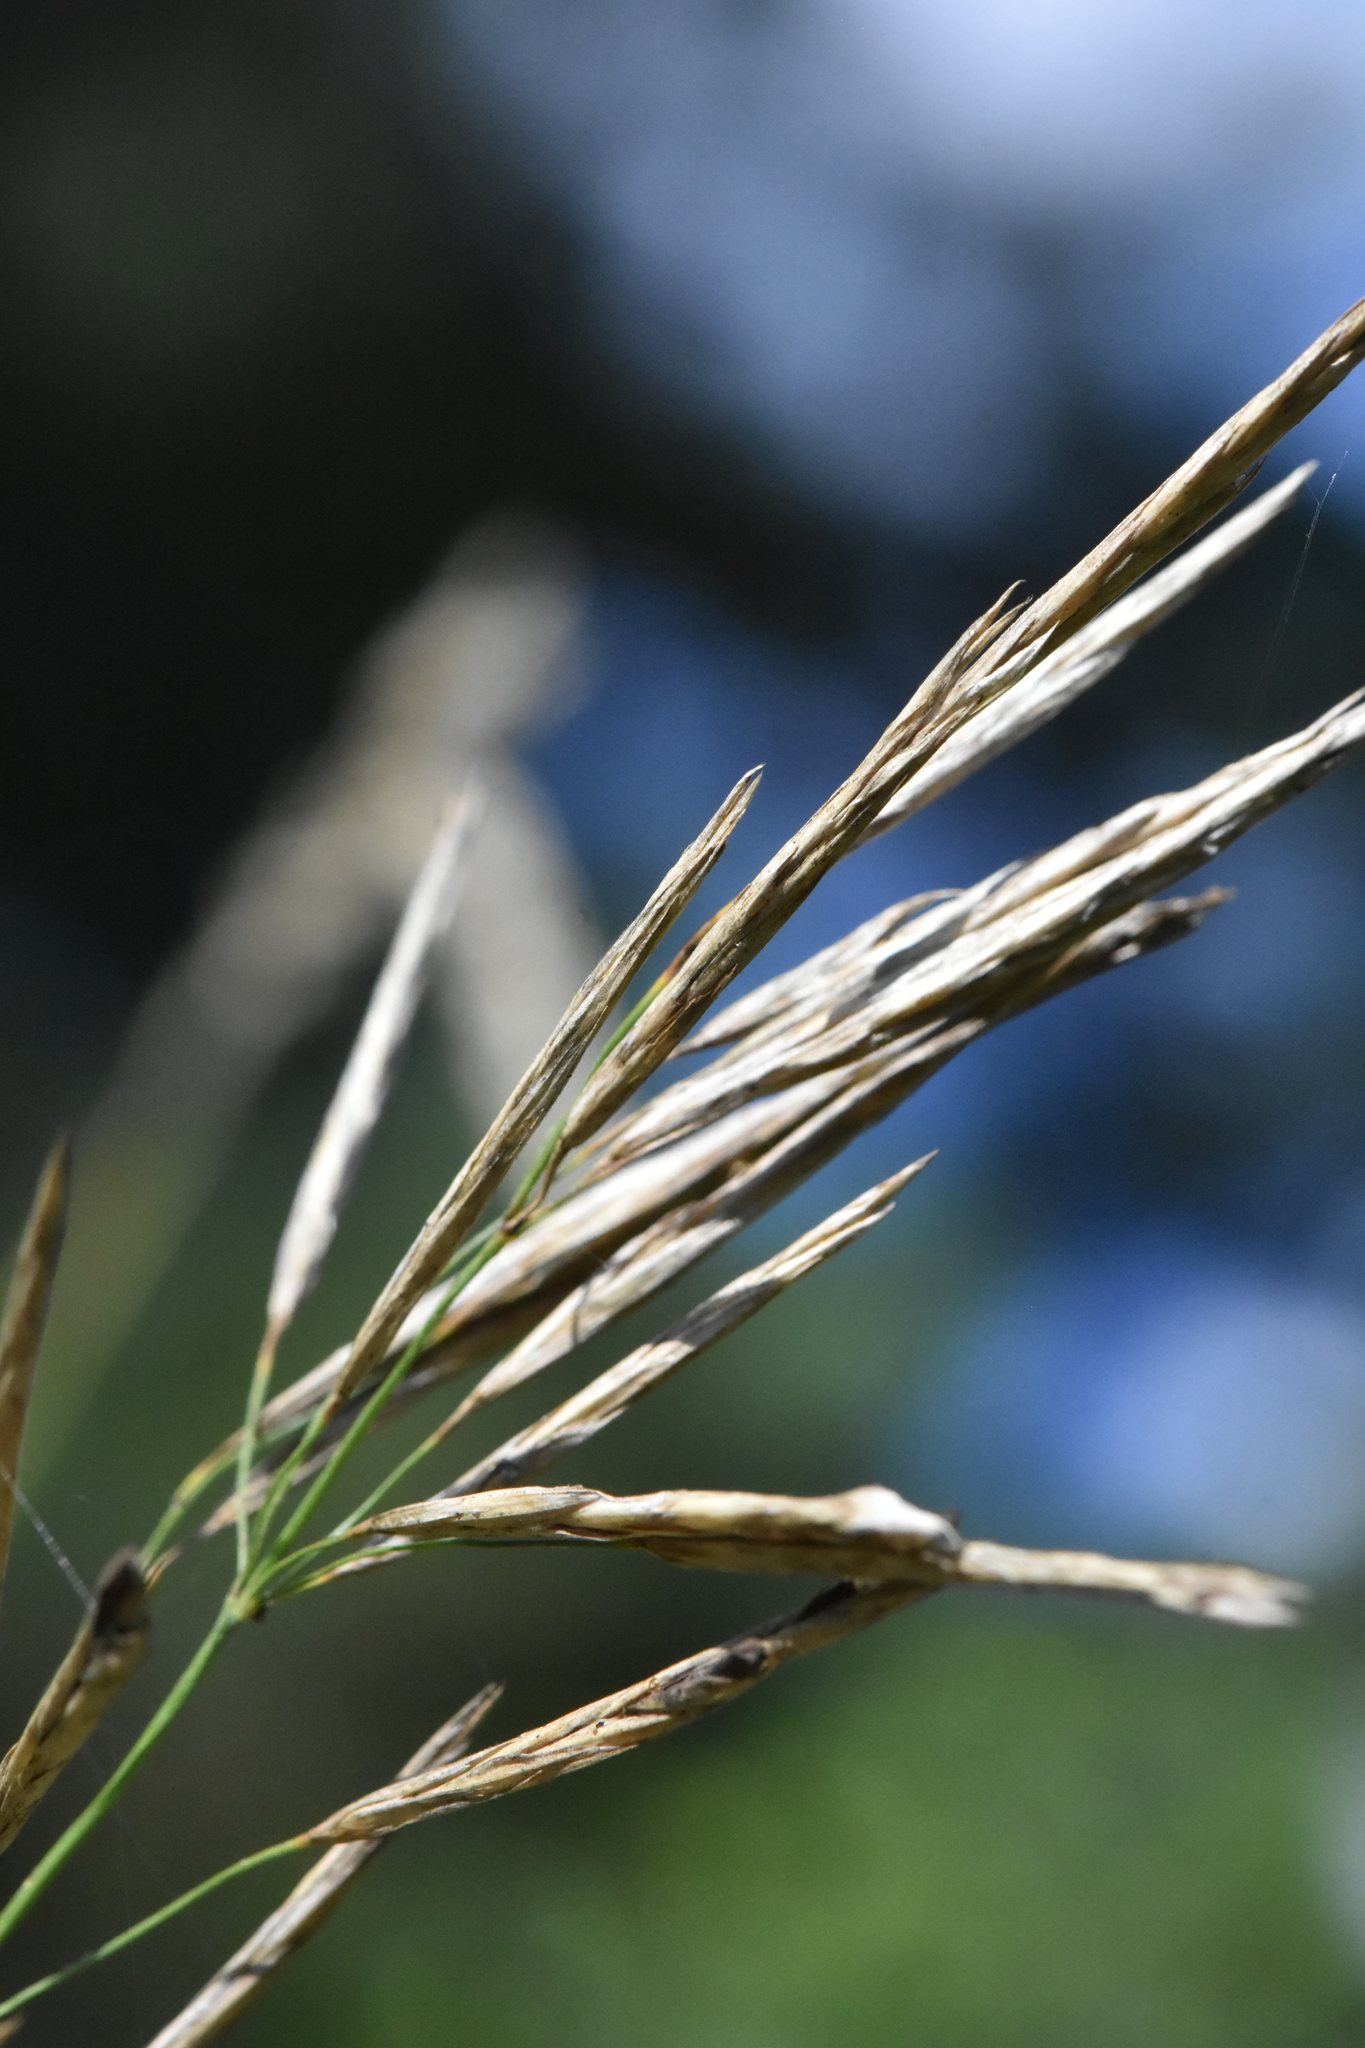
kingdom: Plantae
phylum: Tracheophyta
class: Liliopsida
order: Poales
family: Poaceae
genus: Bromus
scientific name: Bromus inermis
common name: Smooth brome
